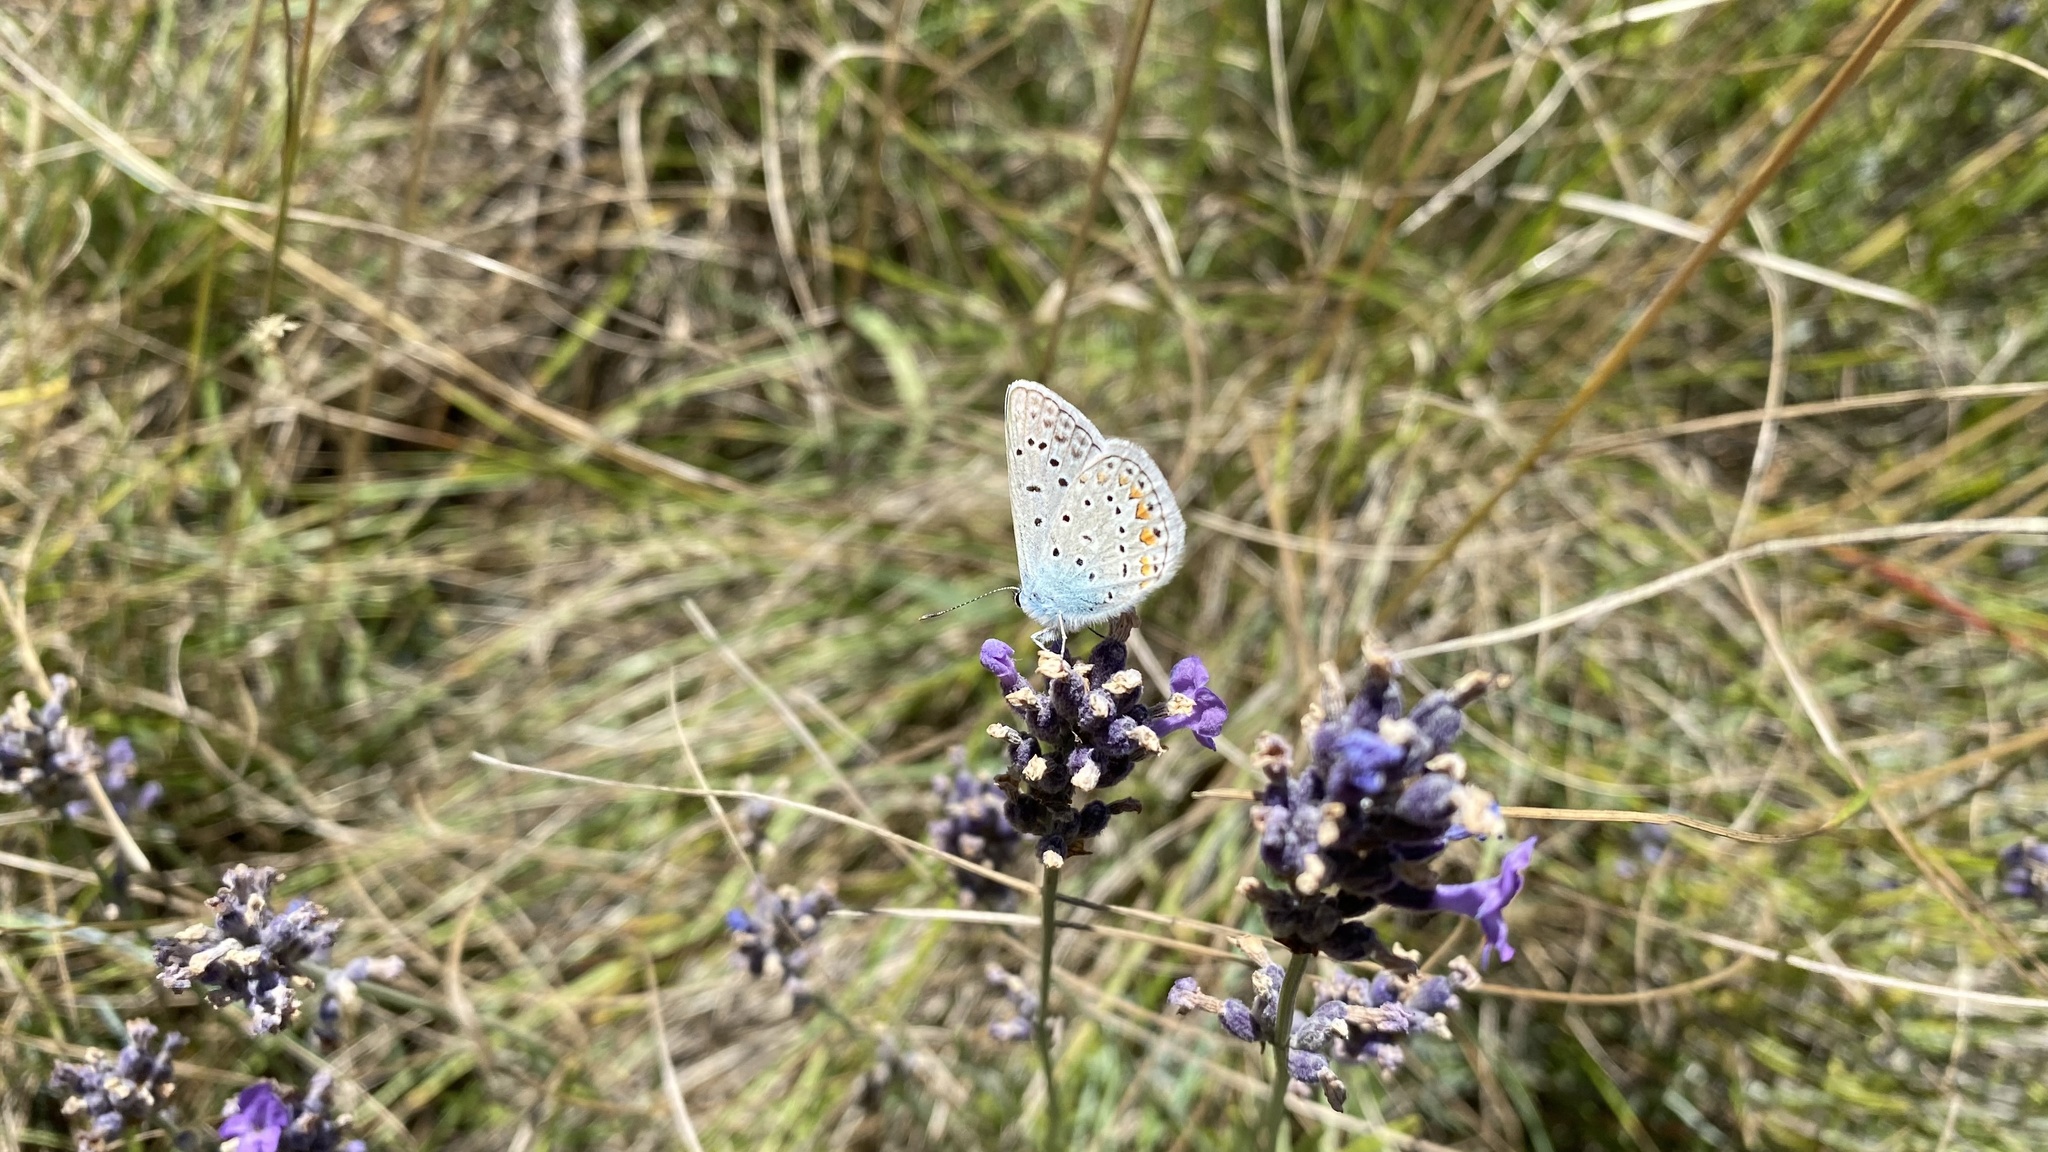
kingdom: Animalia
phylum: Arthropoda
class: Insecta
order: Lepidoptera
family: Lycaenidae
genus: Polyommatus
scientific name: Polyommatus icarus
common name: Common blue
